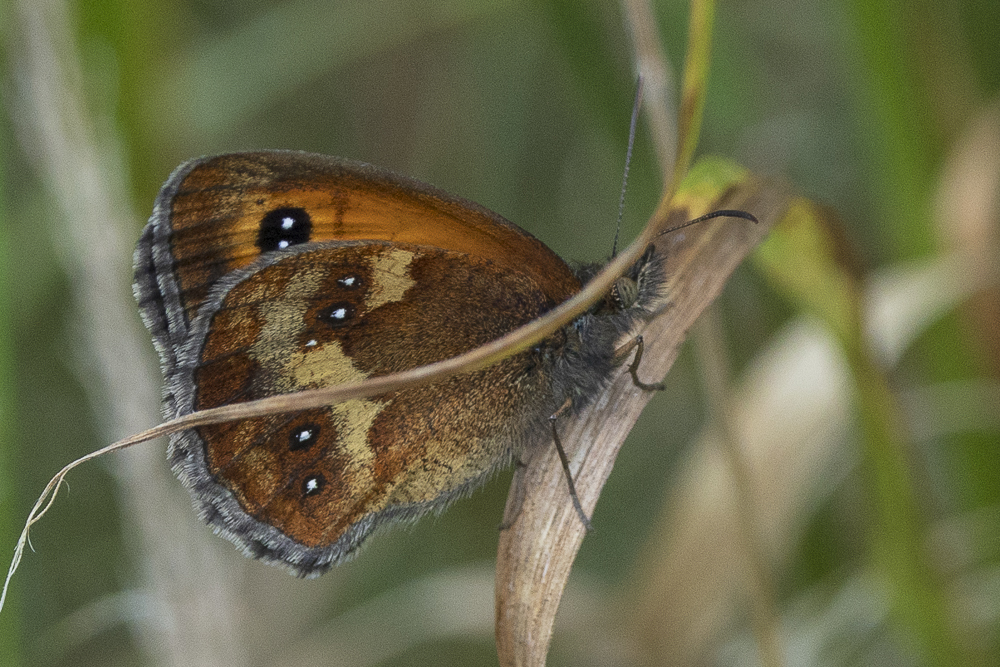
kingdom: Animalia
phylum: Arthropoda
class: Insecta
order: Lepidoptera
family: Nymphalidae
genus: Pyronia
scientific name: Pyronia tithonus
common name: Gatekeeper
